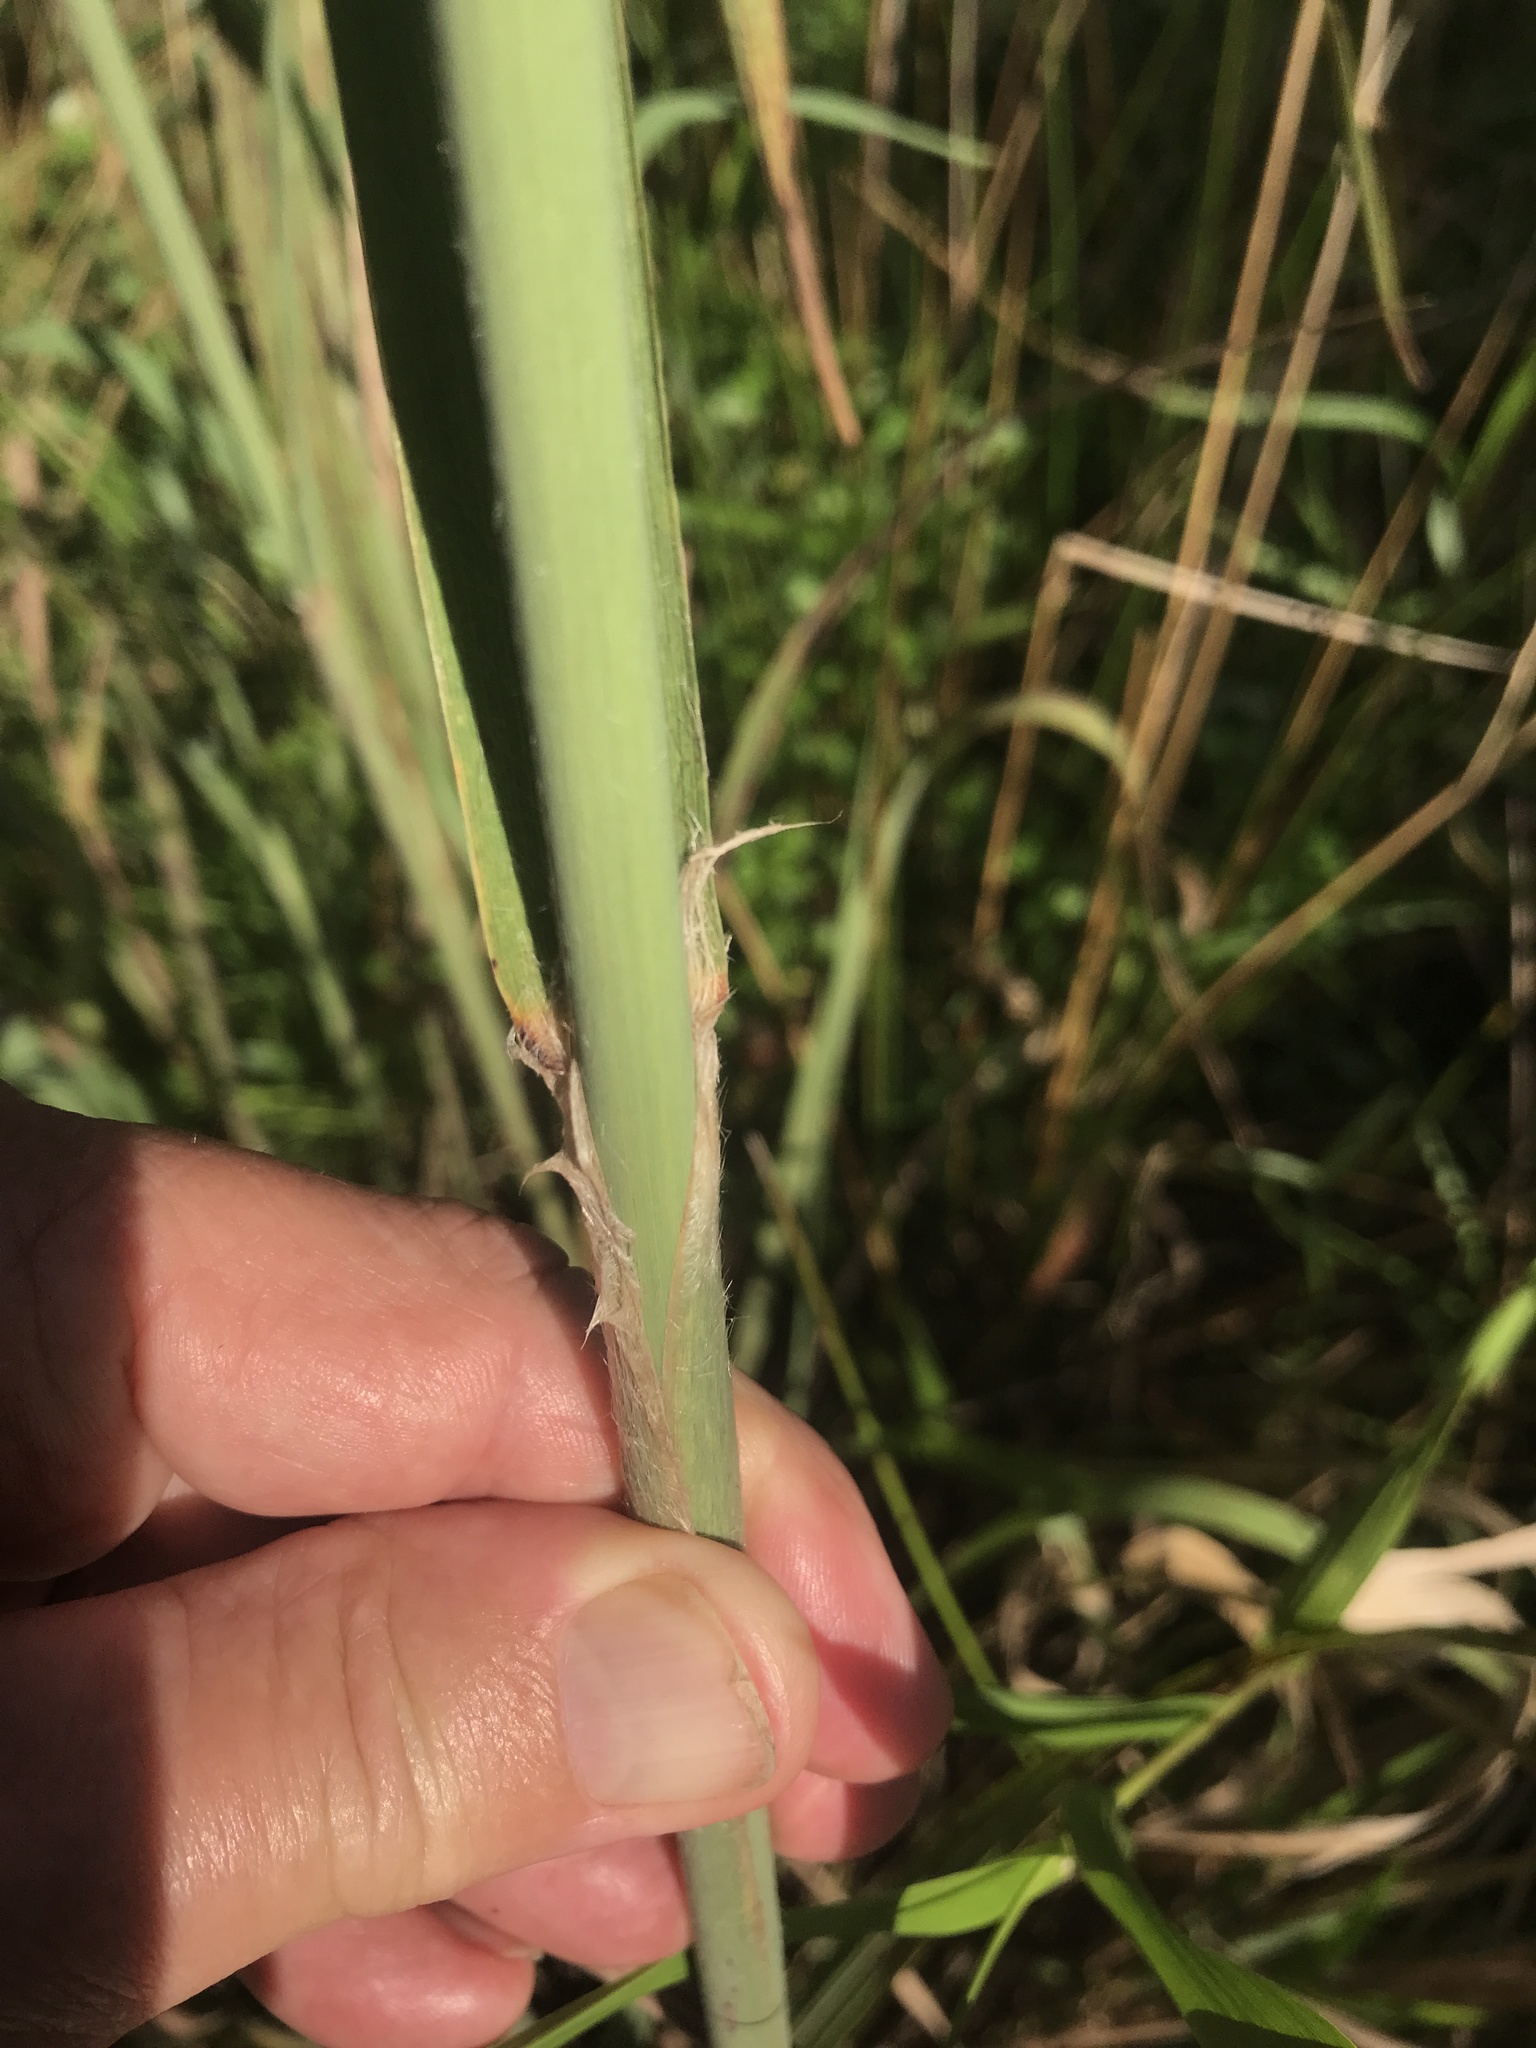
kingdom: Plantae
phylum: Tracheophyta
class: Liliopsida
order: Poales
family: Poaceae
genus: Erianthus
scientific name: Erianthus giganteus
